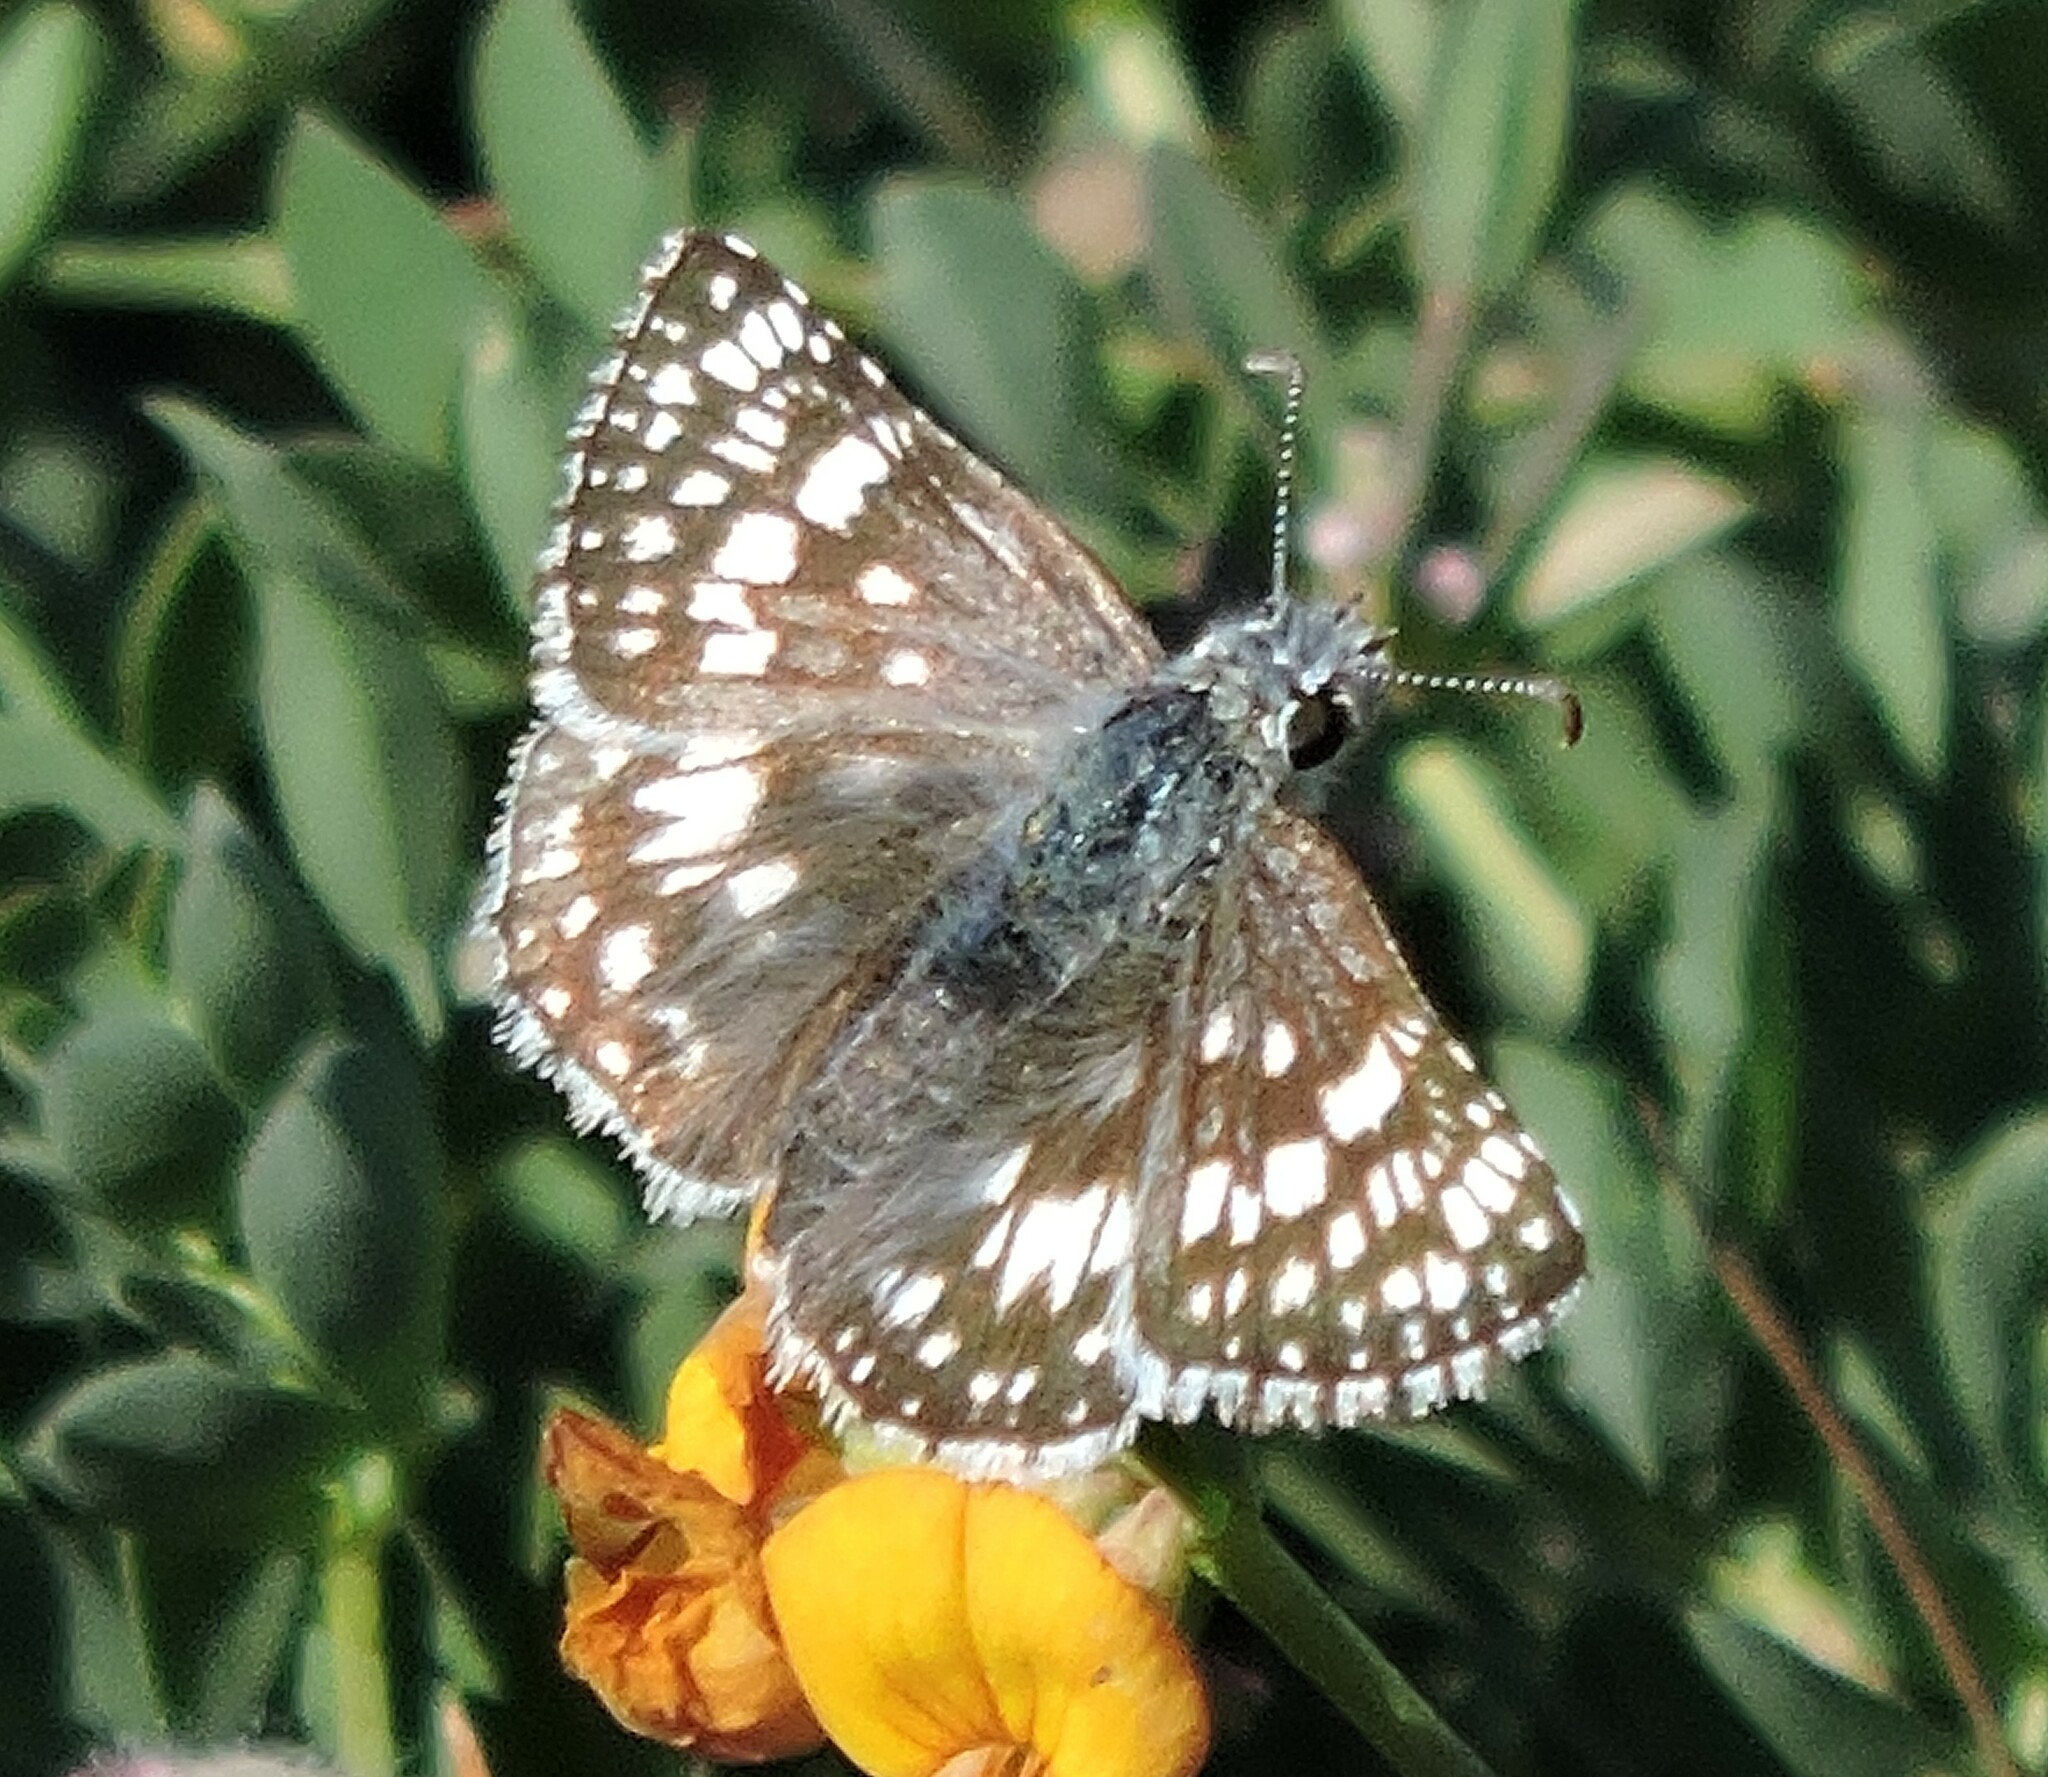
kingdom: Animalia
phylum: Arthropoda
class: Insecta
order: Lepidoptera
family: Hesperiidae
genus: Burnsius
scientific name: Burnsius communis
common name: Common checkered-skipper
